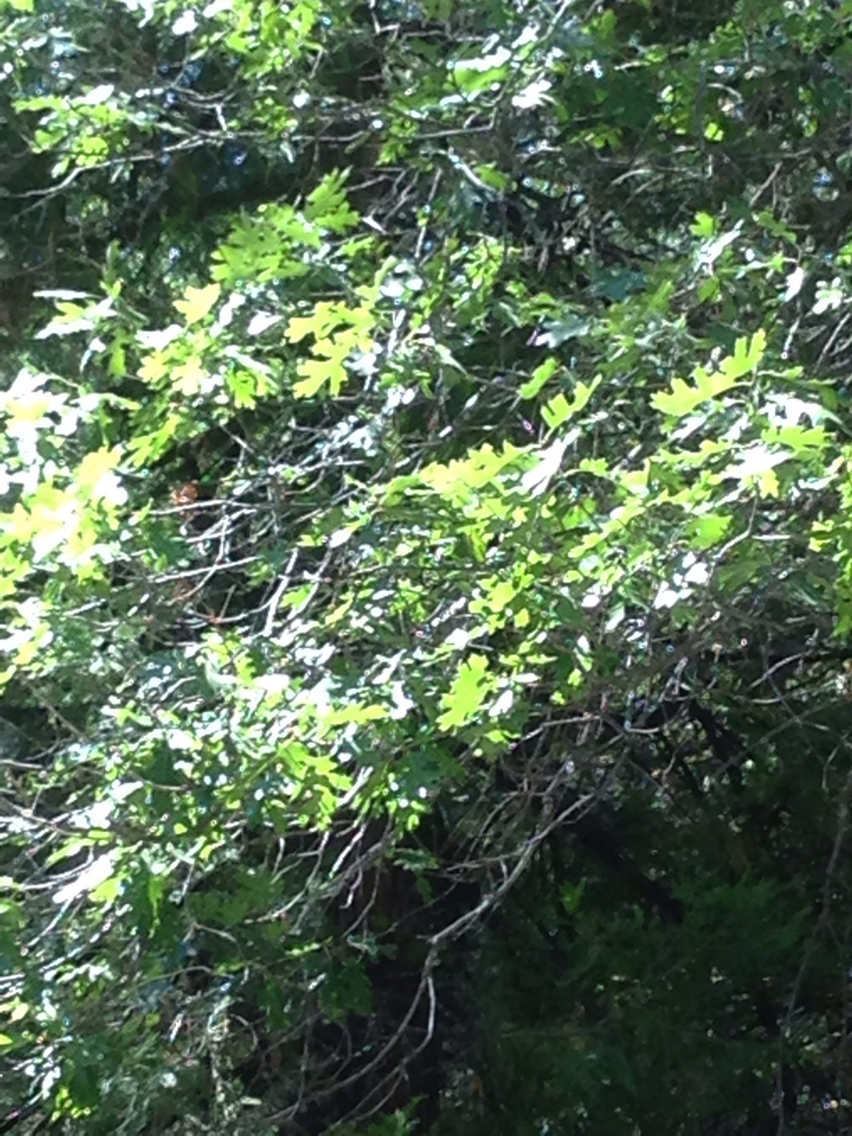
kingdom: Plantae
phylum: Tracheophyta
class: Magnoliopsida
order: Fagales
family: Fagaceae
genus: Quercus
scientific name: Quercus kelloggii
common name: California black oak
